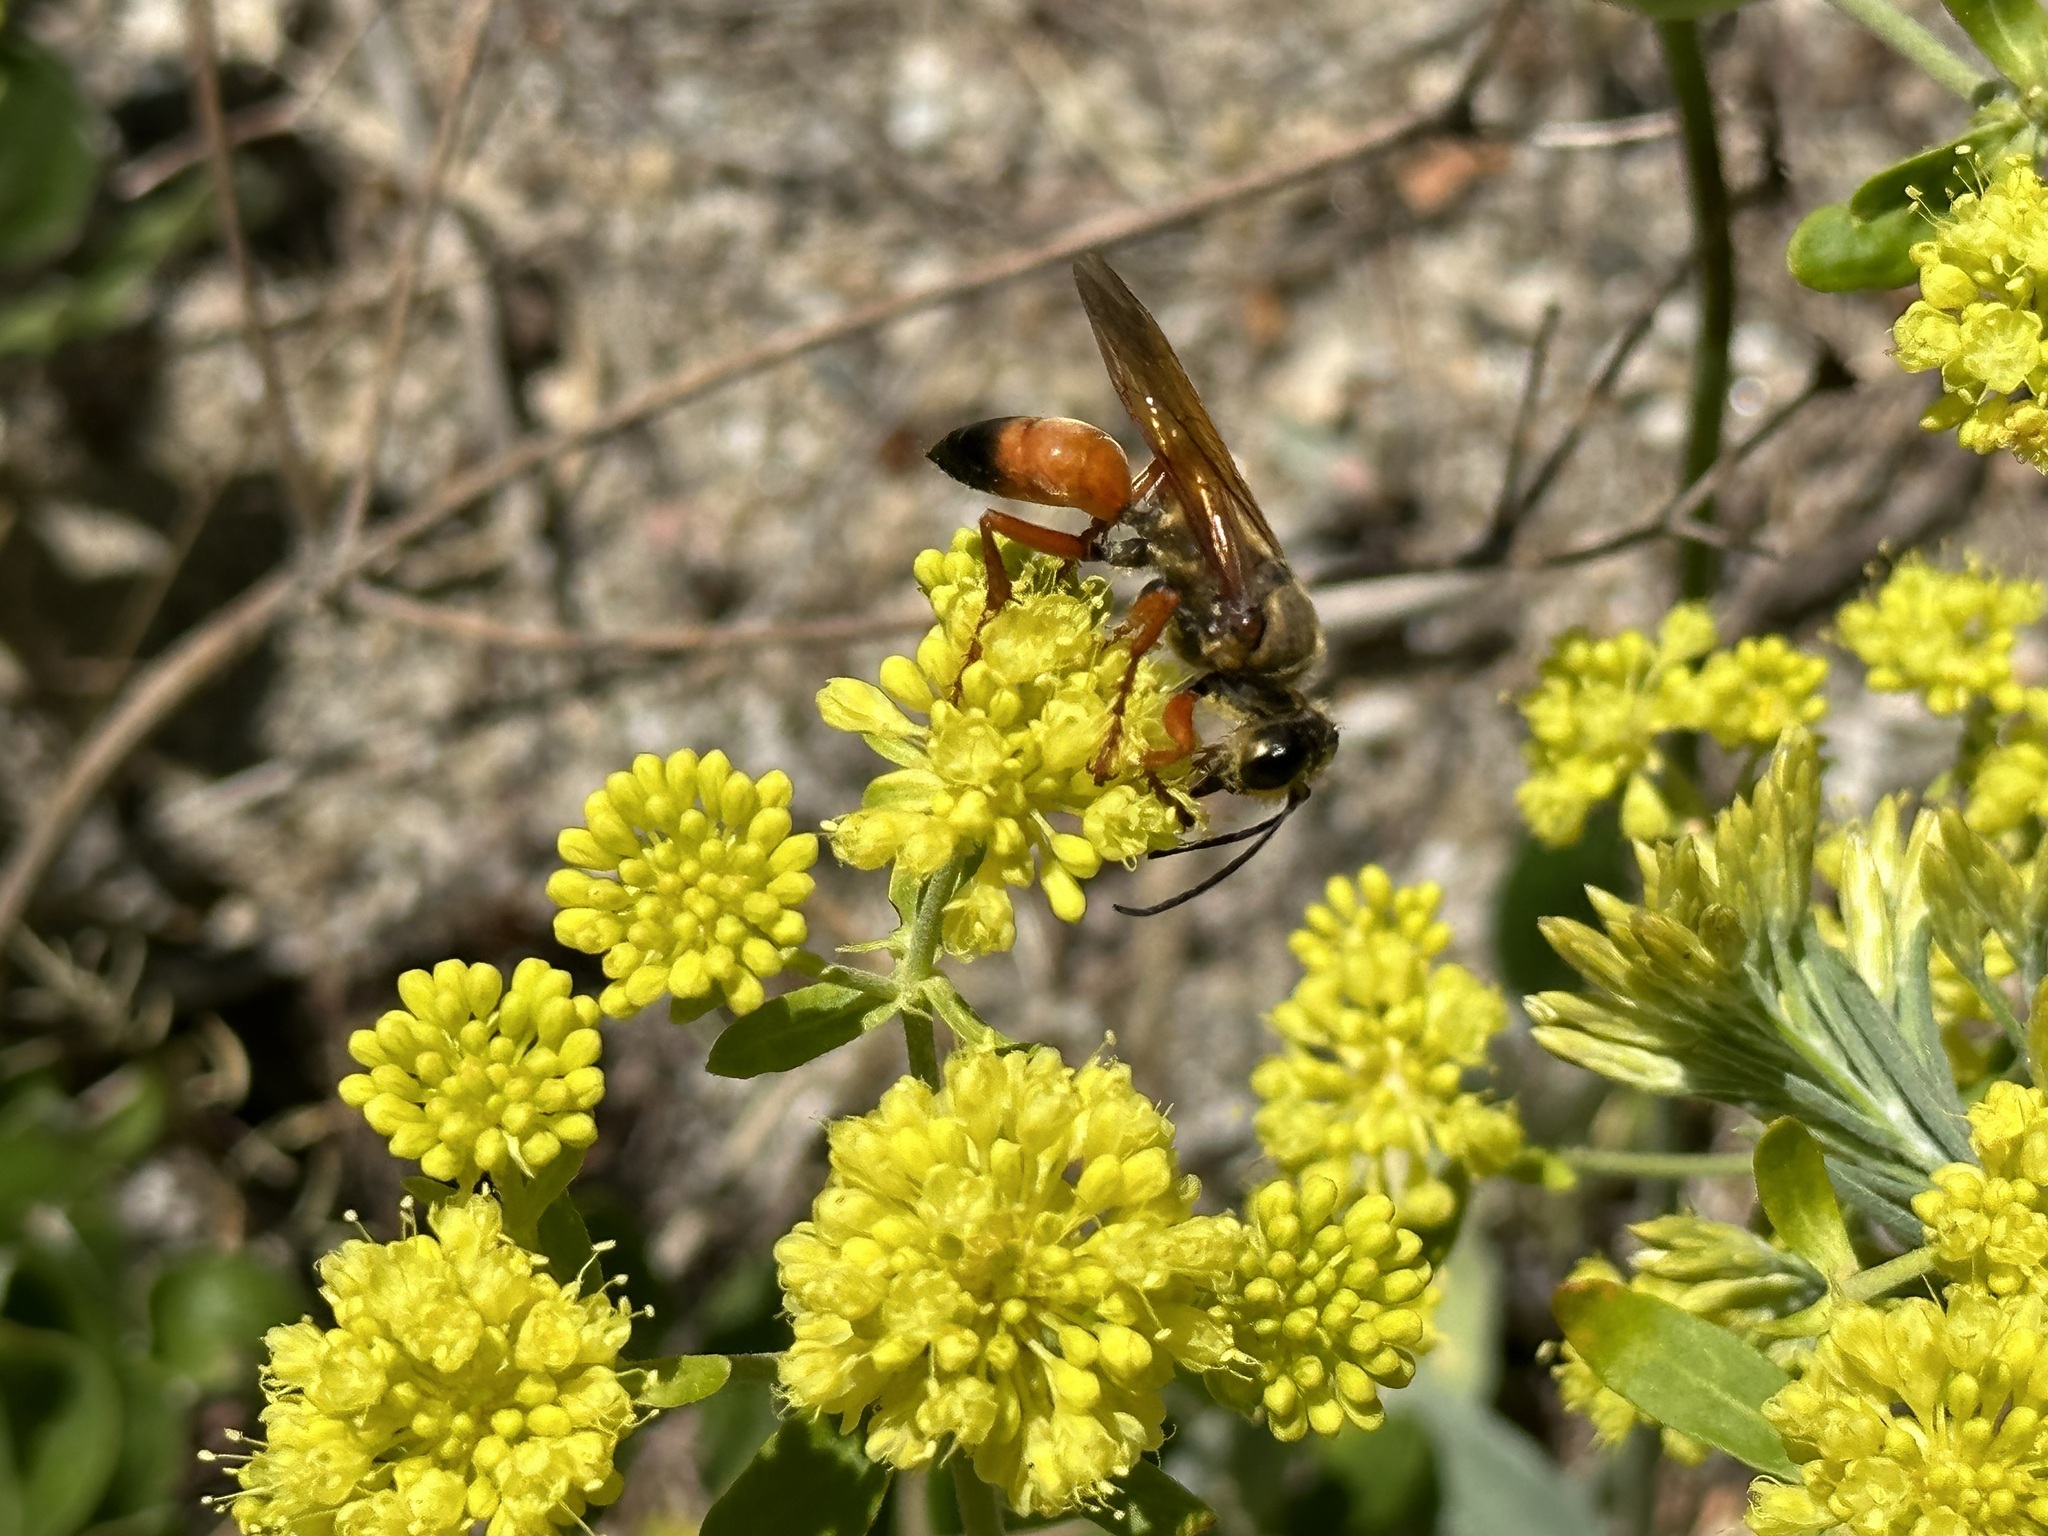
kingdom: Animalia
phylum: Arthropoda
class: Insecta
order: Hymenoptera
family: Sphecidae
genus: Sphex
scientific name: Sphex ichneumoneus
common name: Great golden digger wasp
